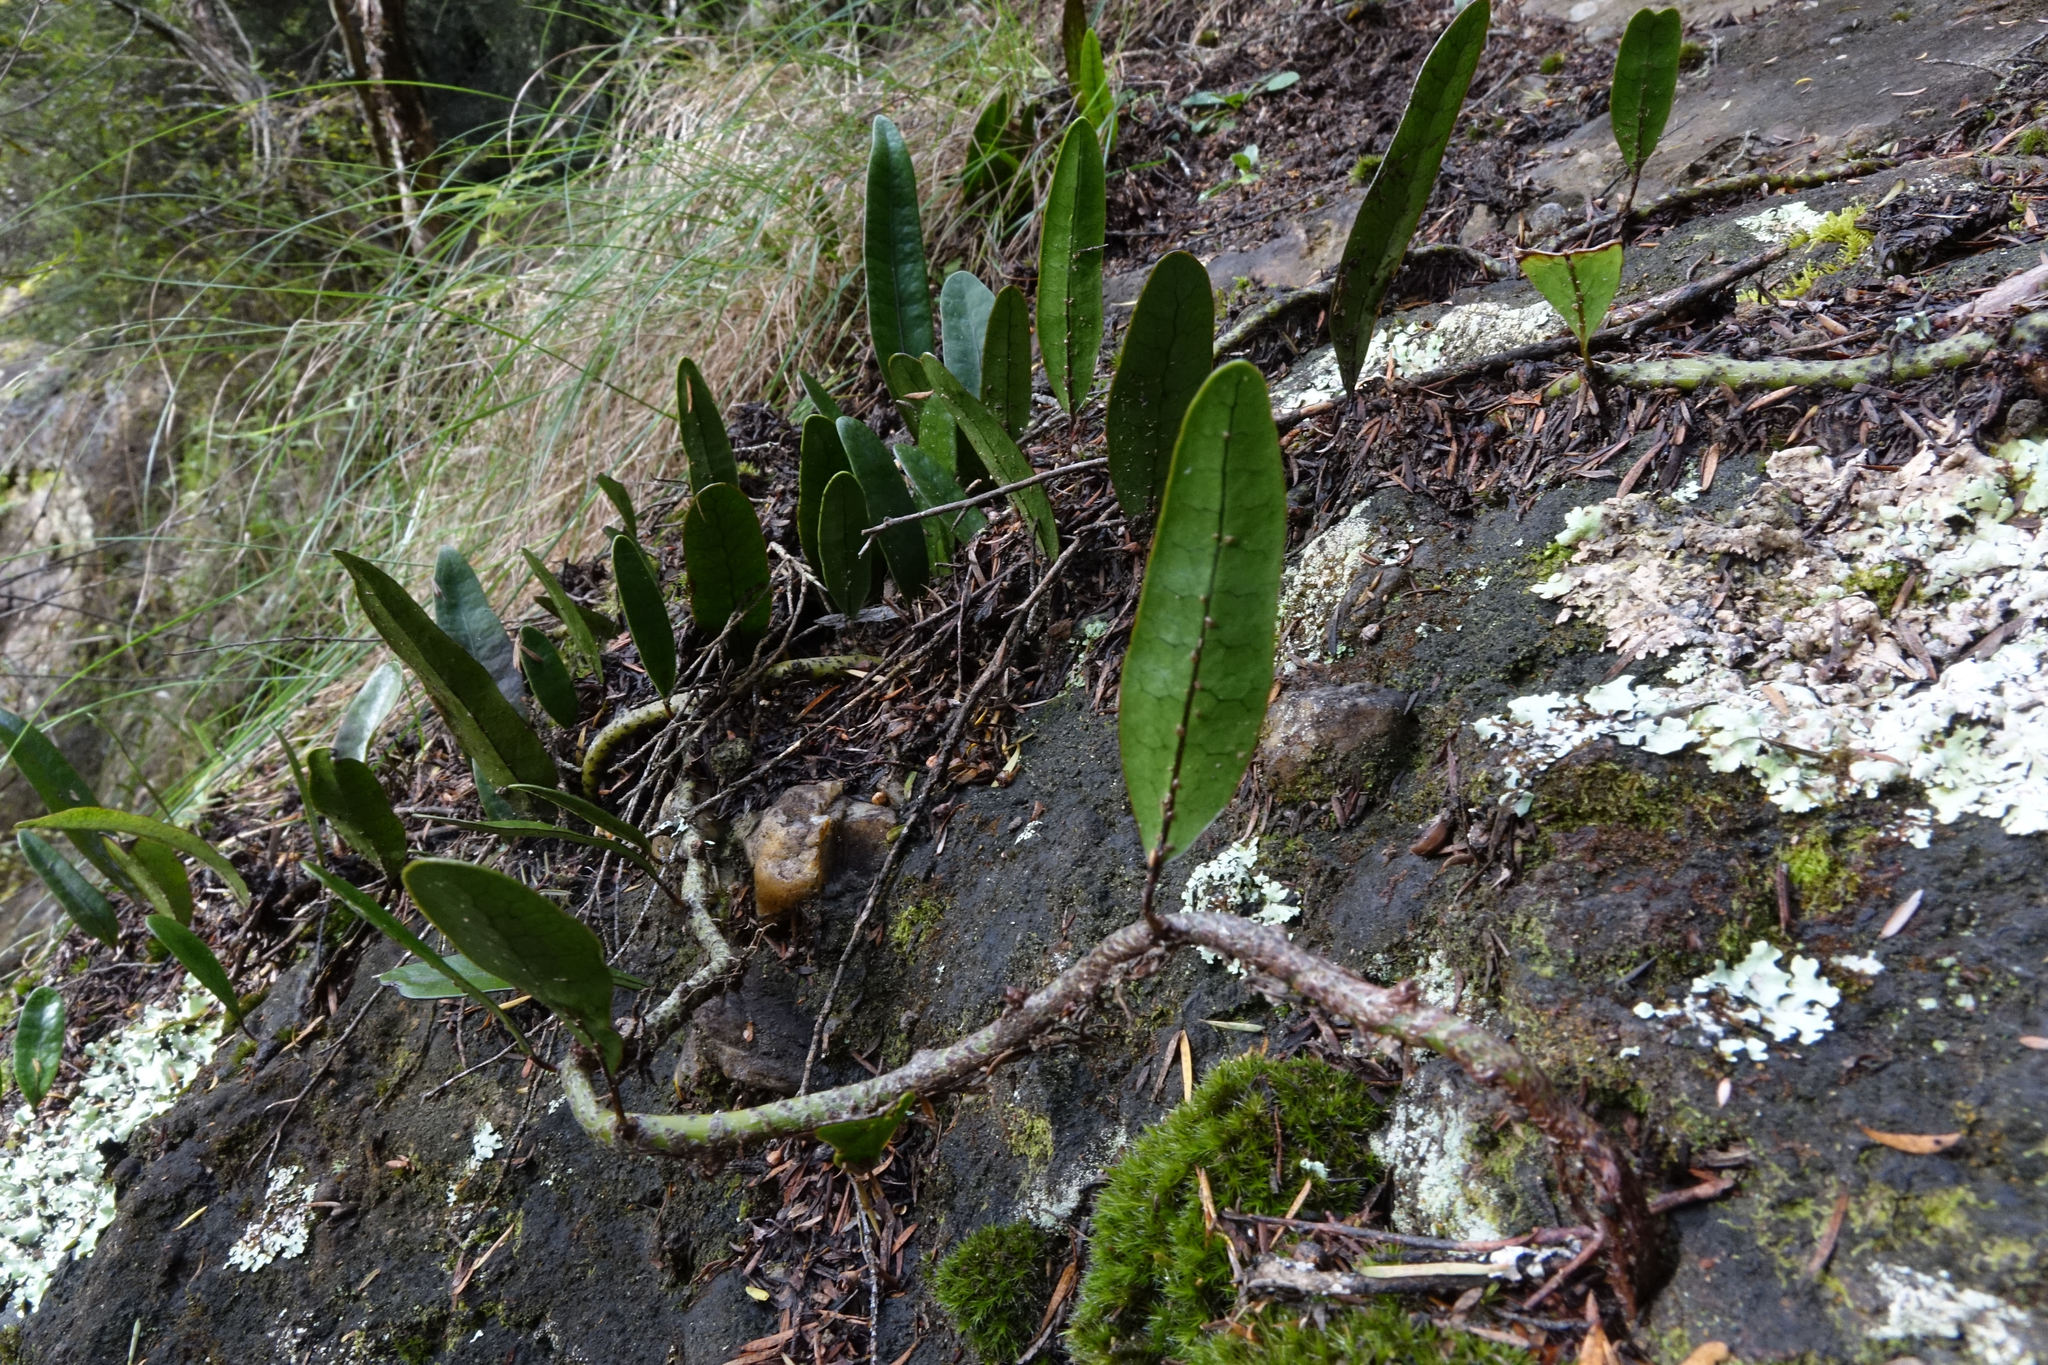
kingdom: Plantae
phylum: Tracheophyta
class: Polypodiopsida
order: Polypodiales
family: Polypodiaceae
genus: Lecanopteris
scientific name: Lecanopteris pustulata
